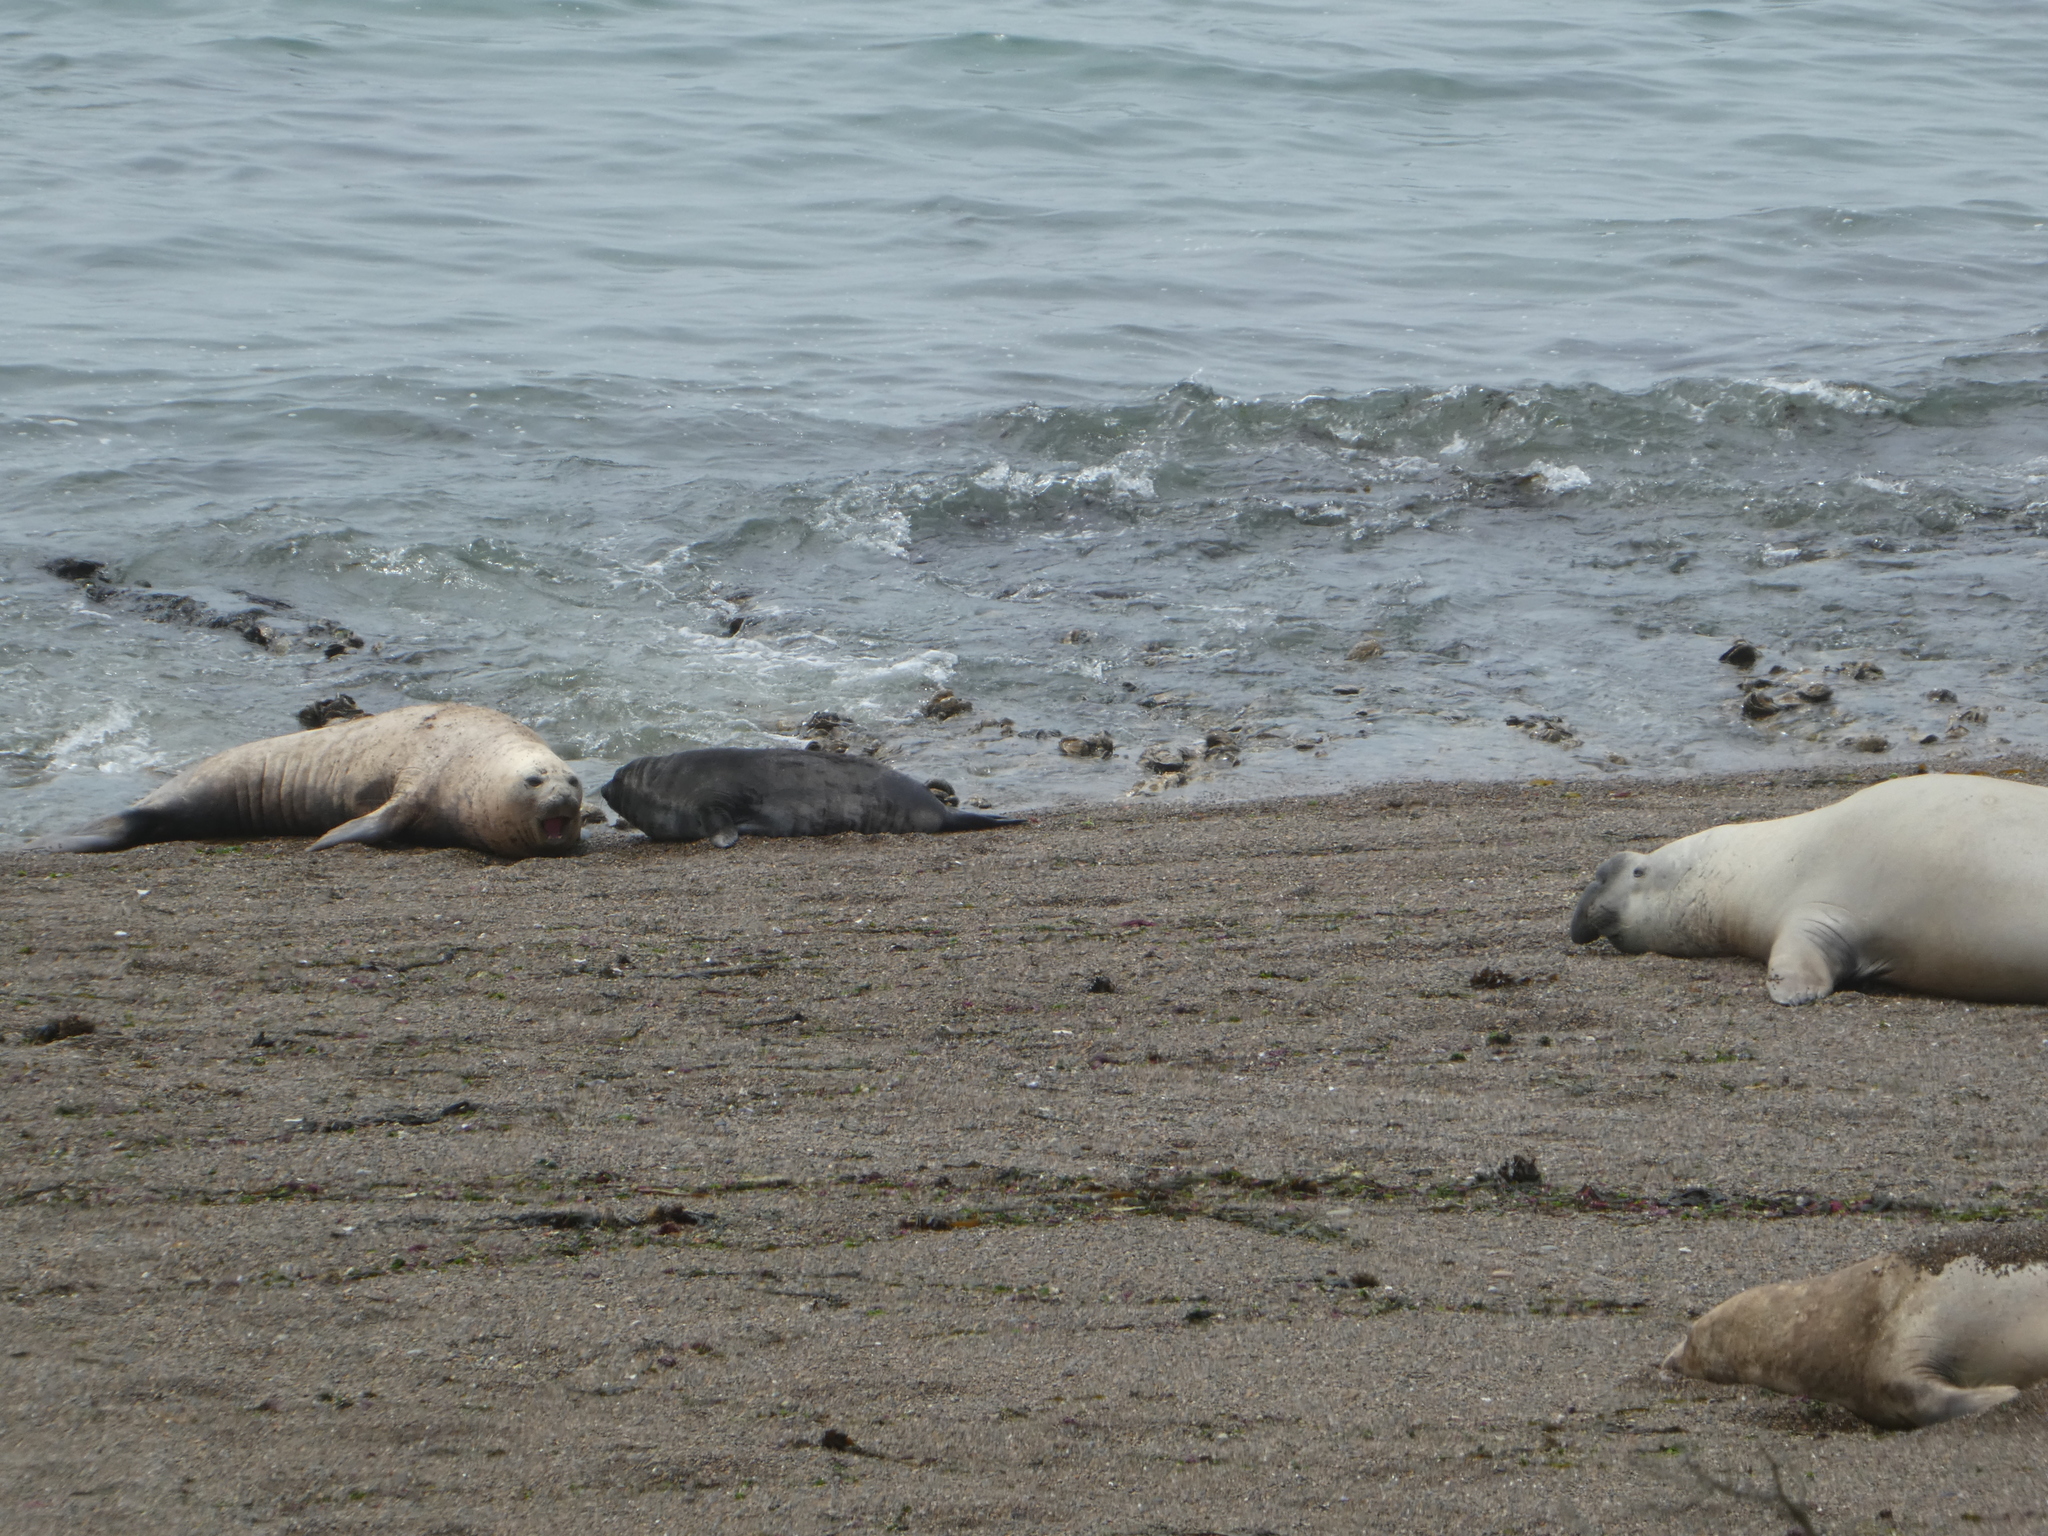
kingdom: Animalia
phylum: Chordata
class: Mammalia
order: Carnivora
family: Phocidae
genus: Mirounga
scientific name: Mirounga leonina
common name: Southern elephant seal
